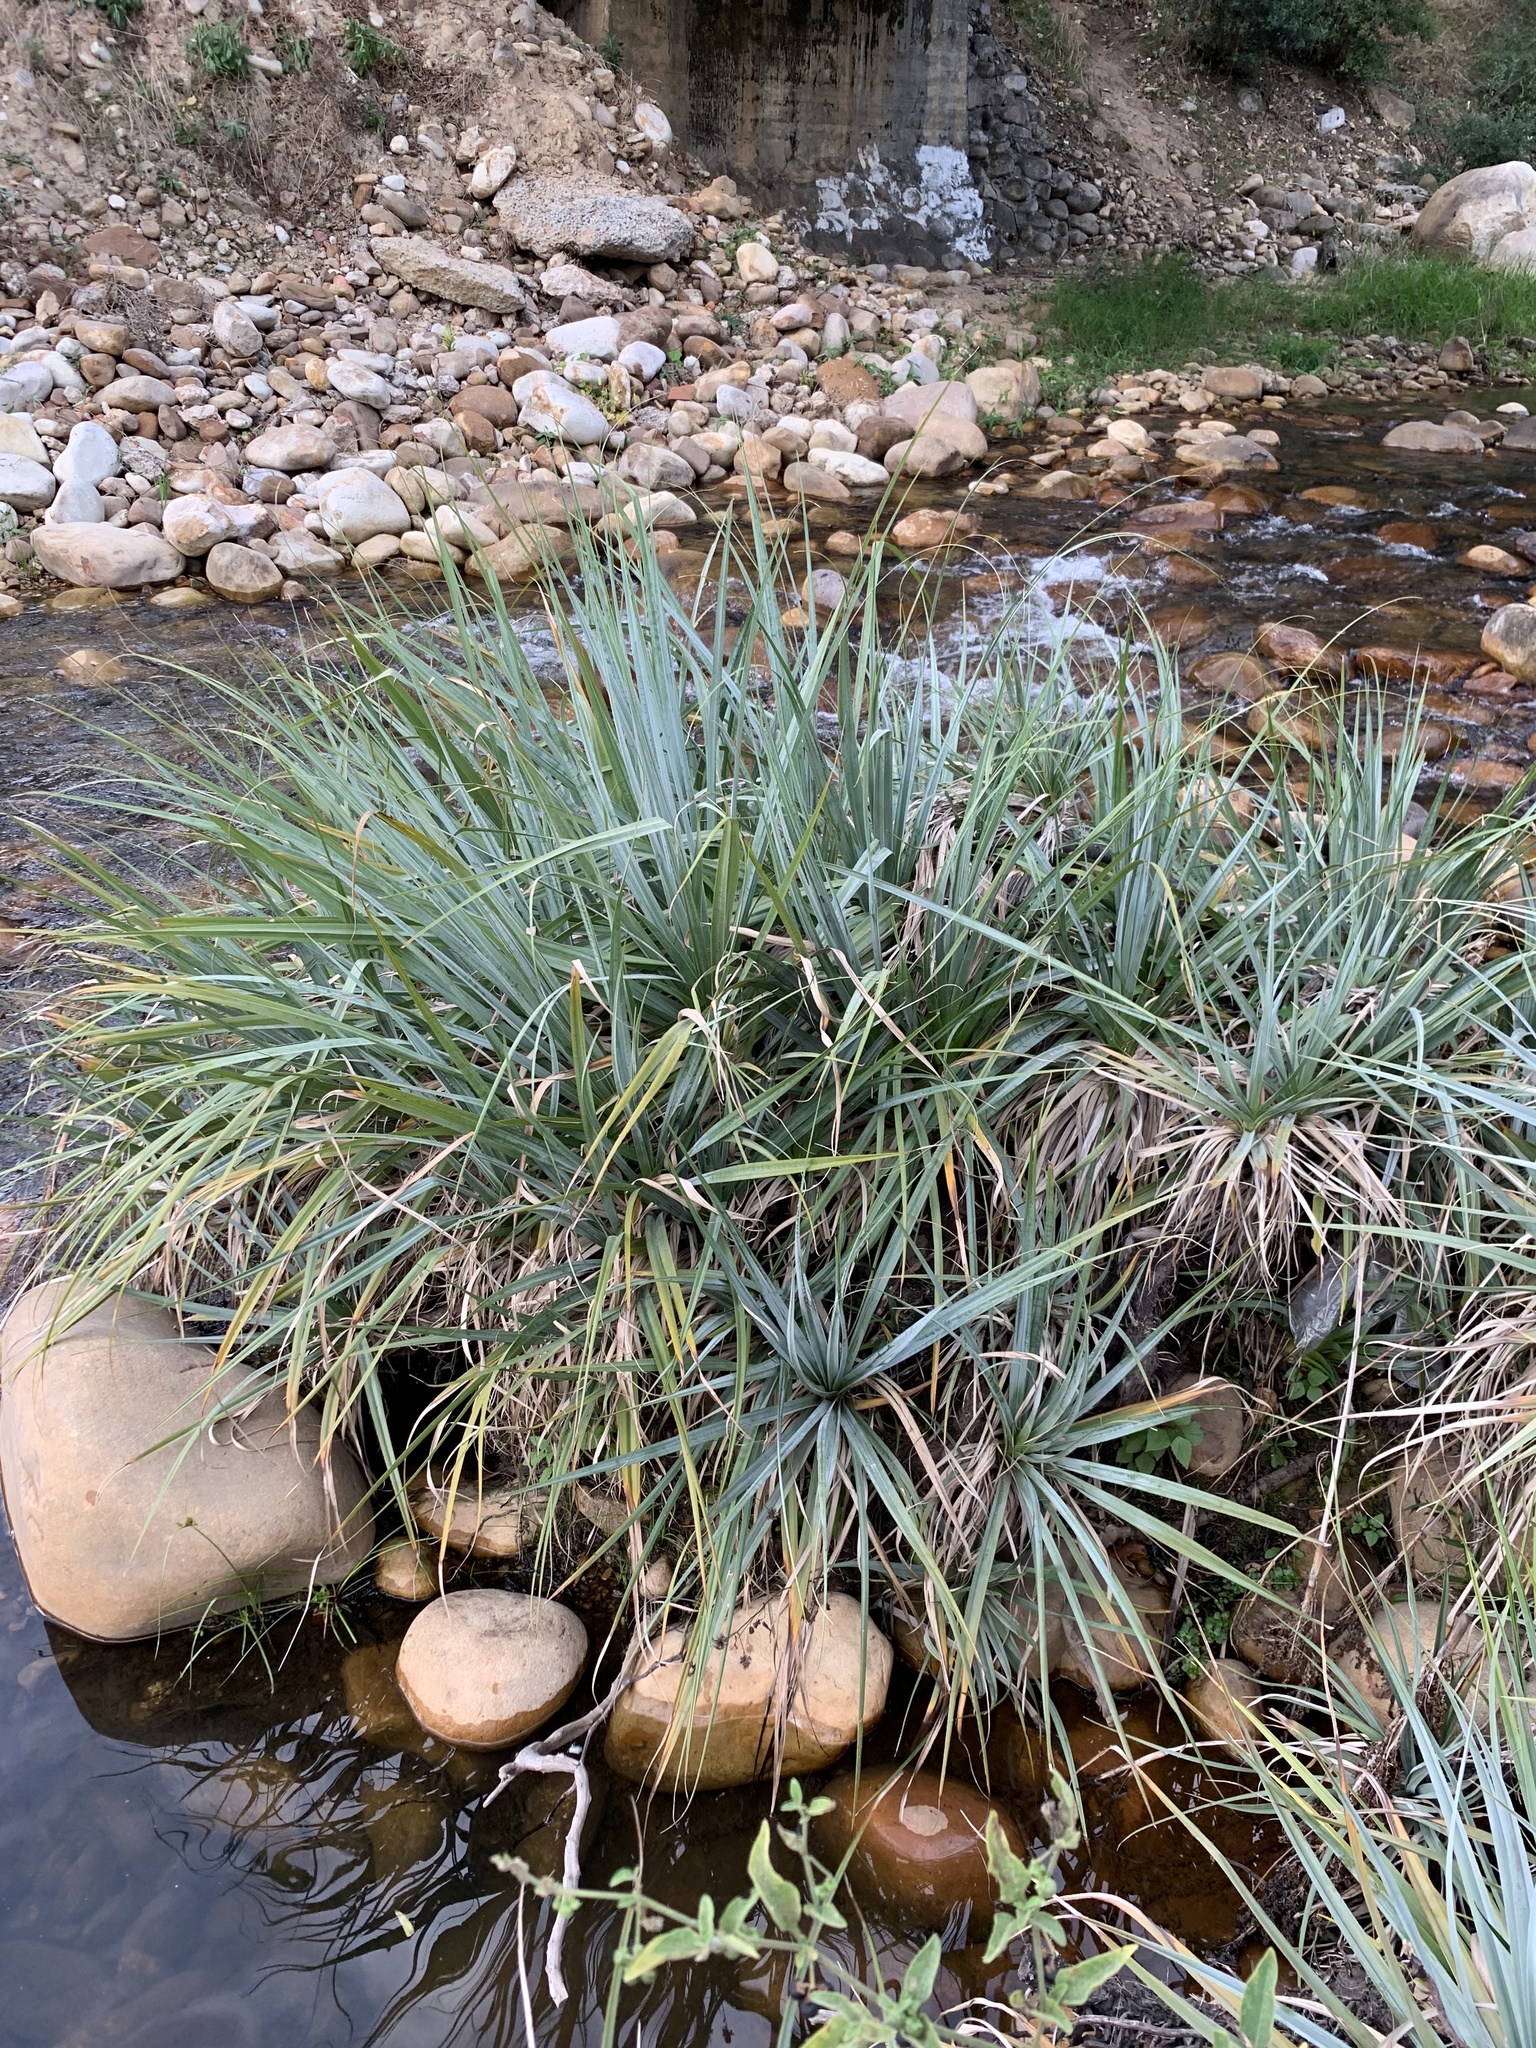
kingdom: Plantae
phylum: Tracheophyta
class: Liliopsida
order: Poales
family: Thurniaceae
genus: Prionium
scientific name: Prionium serratum
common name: Palmiet
